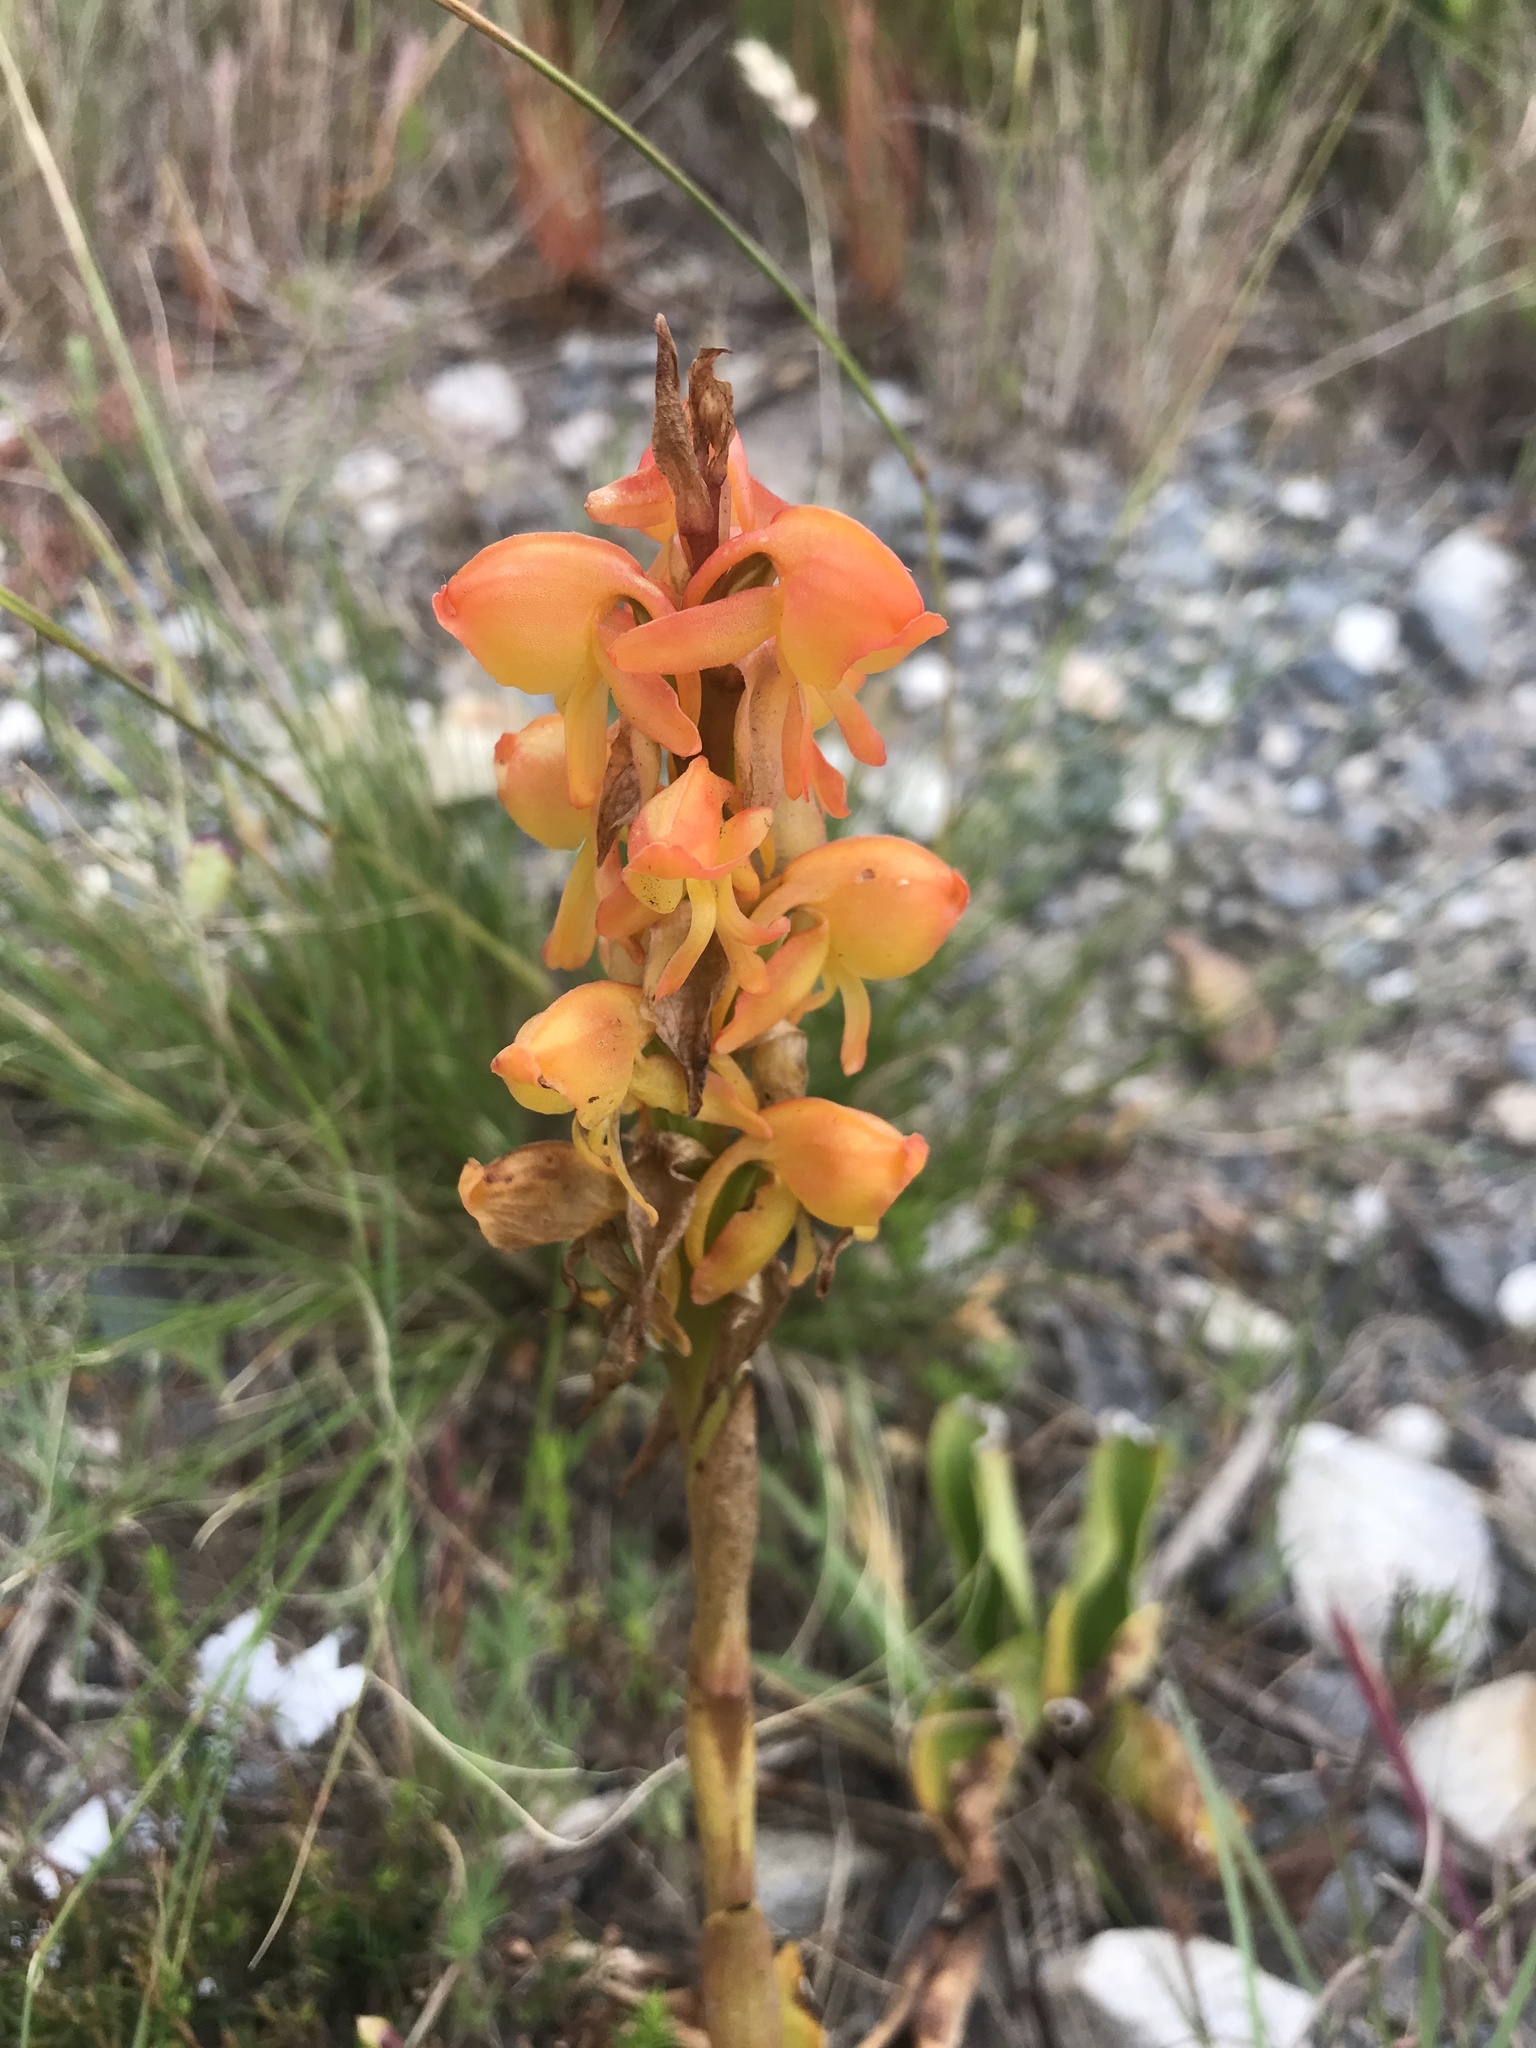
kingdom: Plantae
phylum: Tracheophyta
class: Liliopsida
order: Asparagales
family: Orchidaceae
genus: Satyrium
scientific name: Satyrium coriifolium
